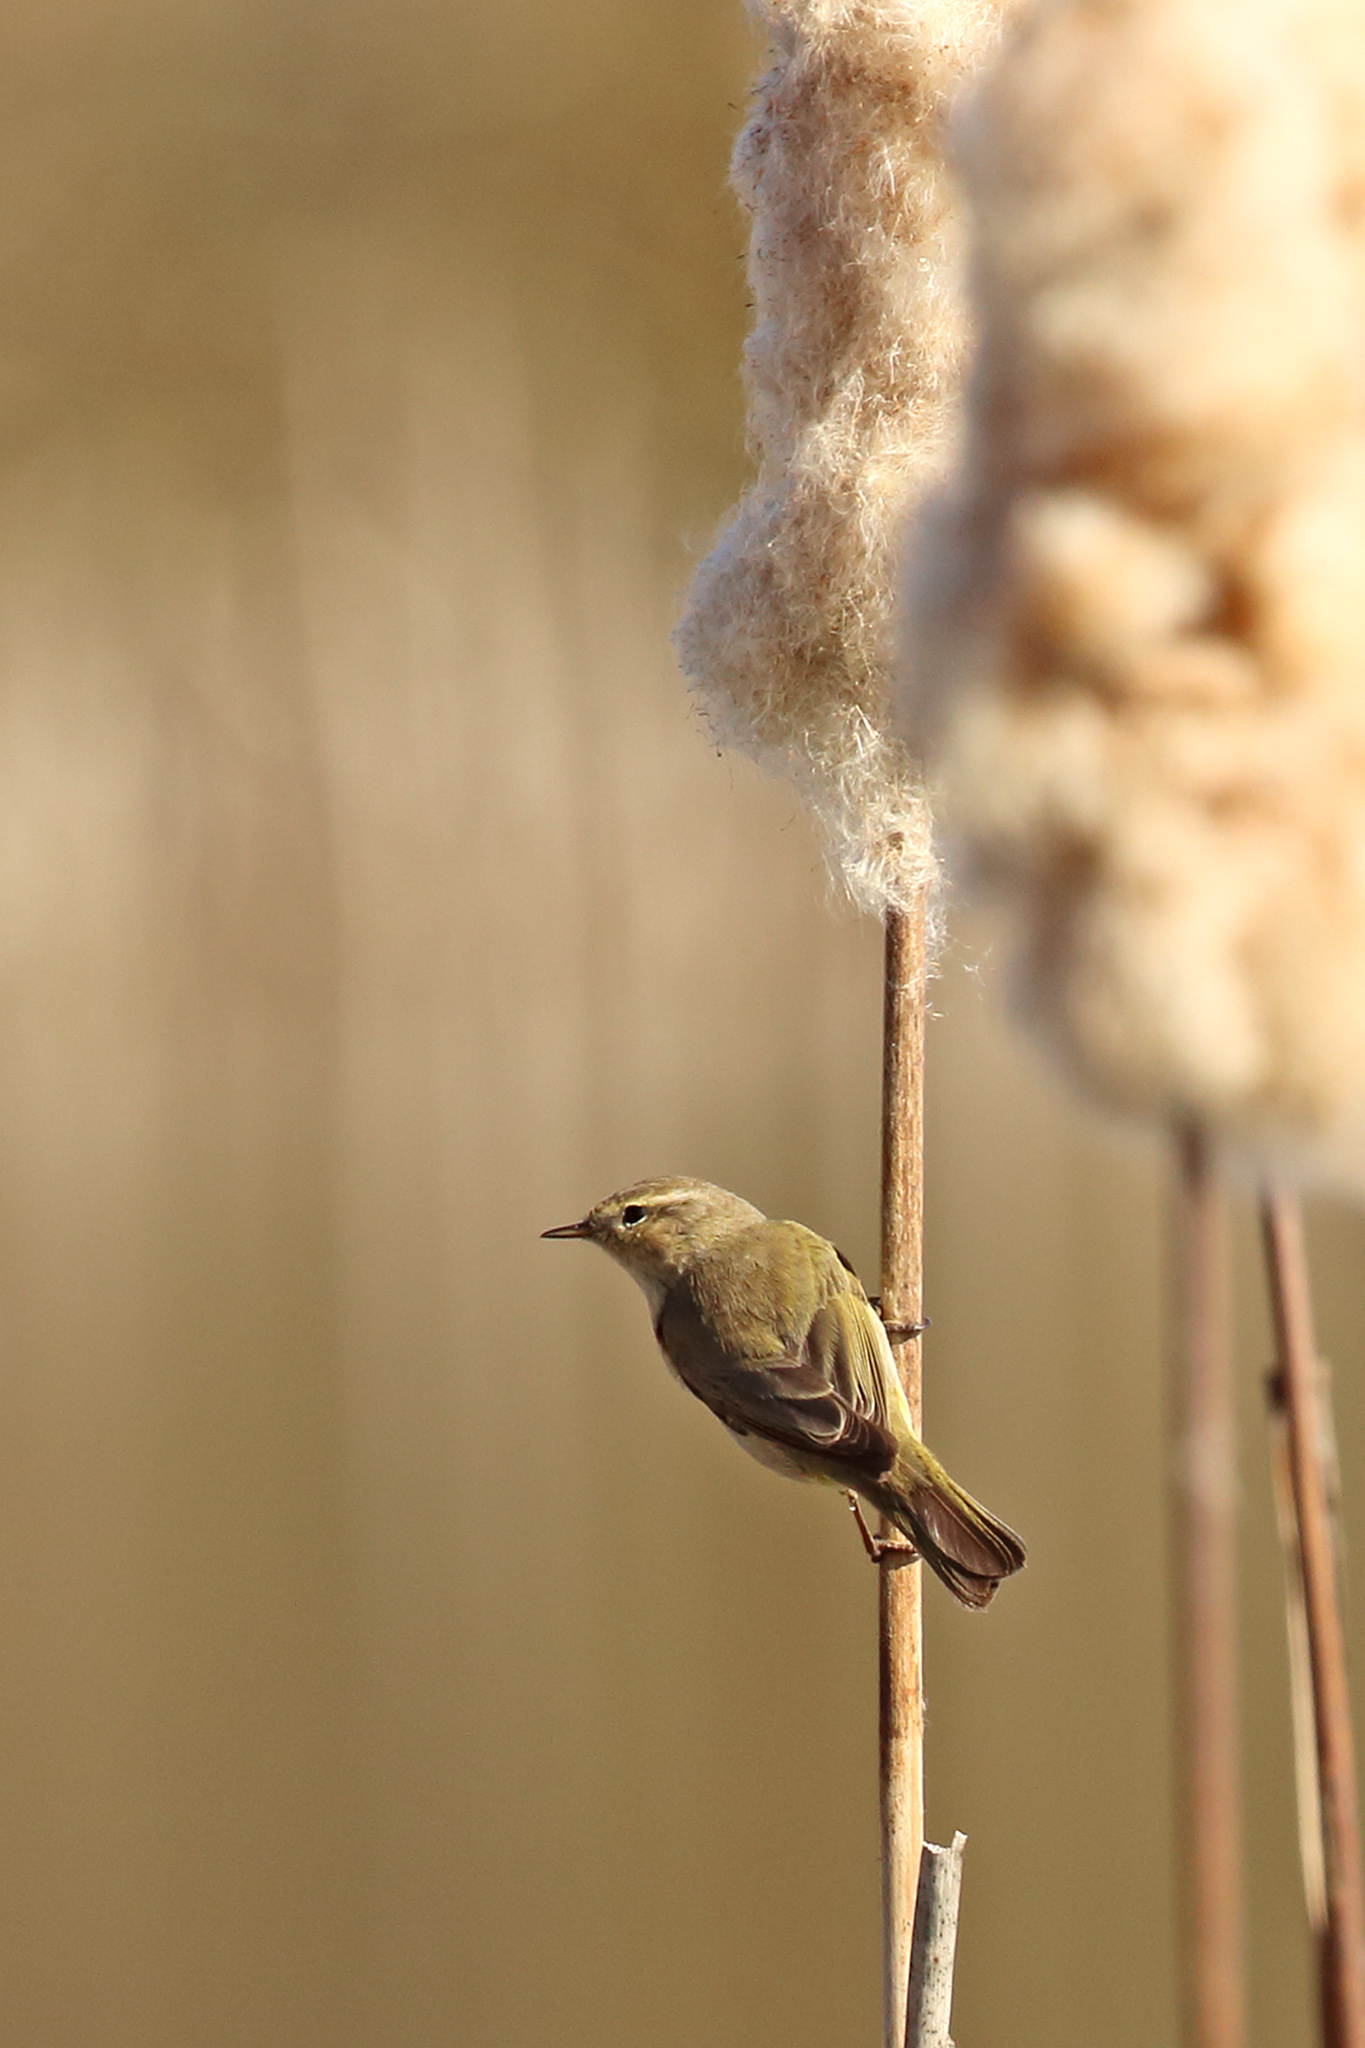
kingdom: Animalia
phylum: Chordata
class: Aves
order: Passeriformes
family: Phylloscopidae
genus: Phylloscopus
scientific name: Phylloscopus collybita
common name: Common chiffchaff
